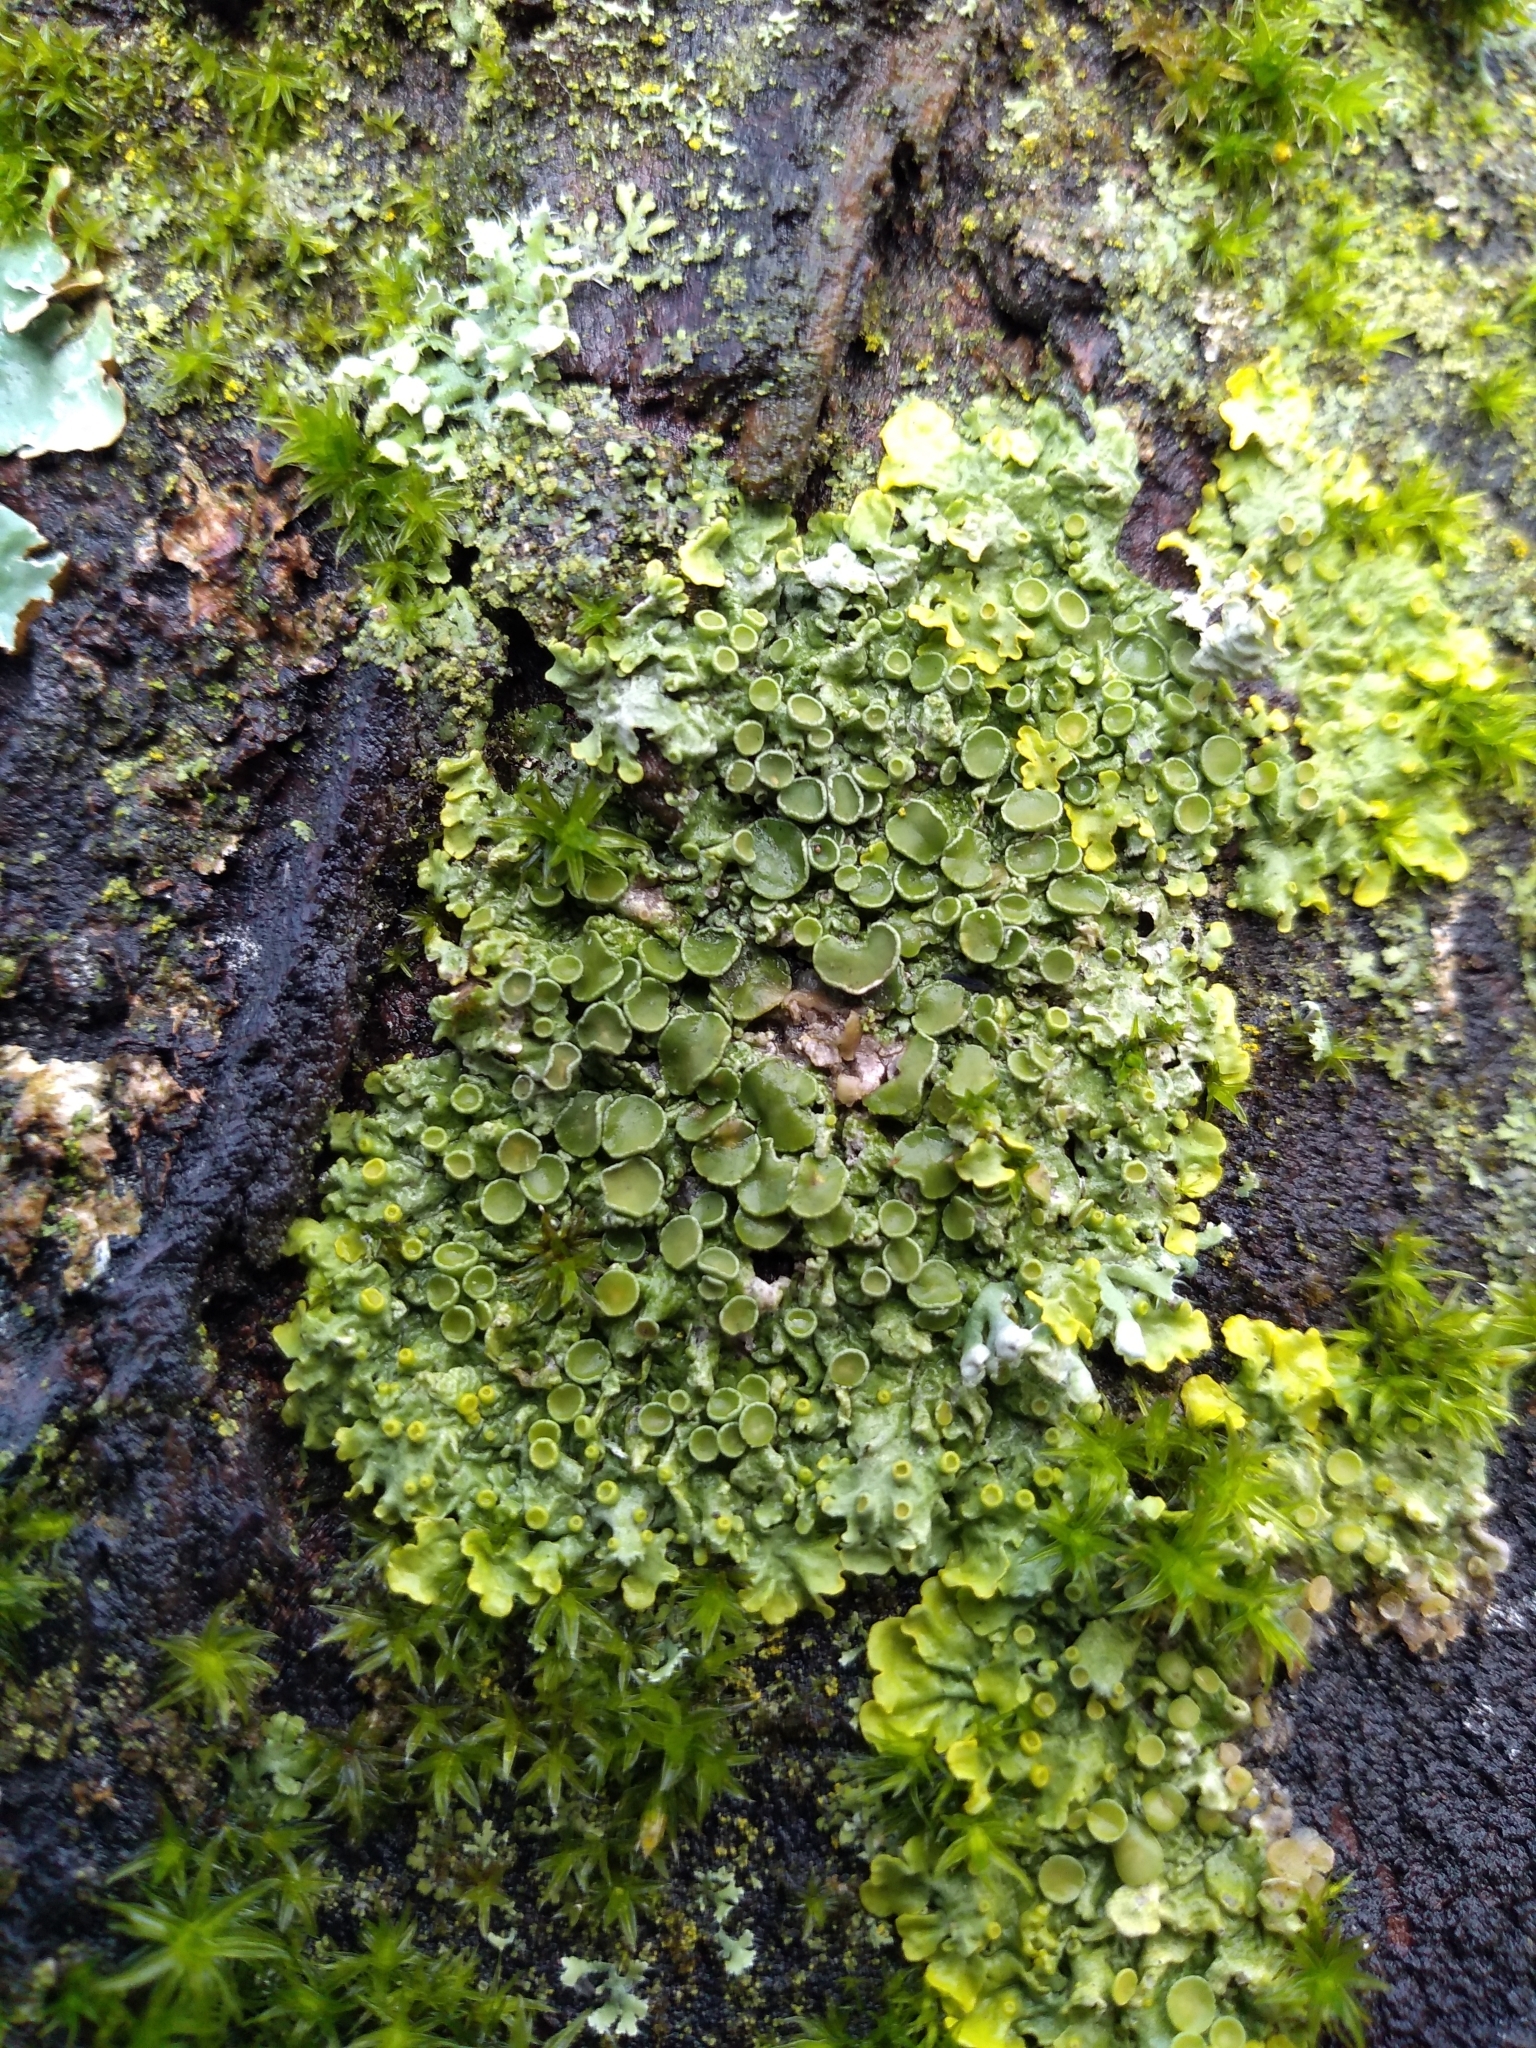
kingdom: Fungi
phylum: Ascomycota
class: Lecanoromycetes
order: Teloschistales
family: Teloschistaceae
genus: Xanthoria
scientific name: Xanthoria parietina
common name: Common orange lichen
